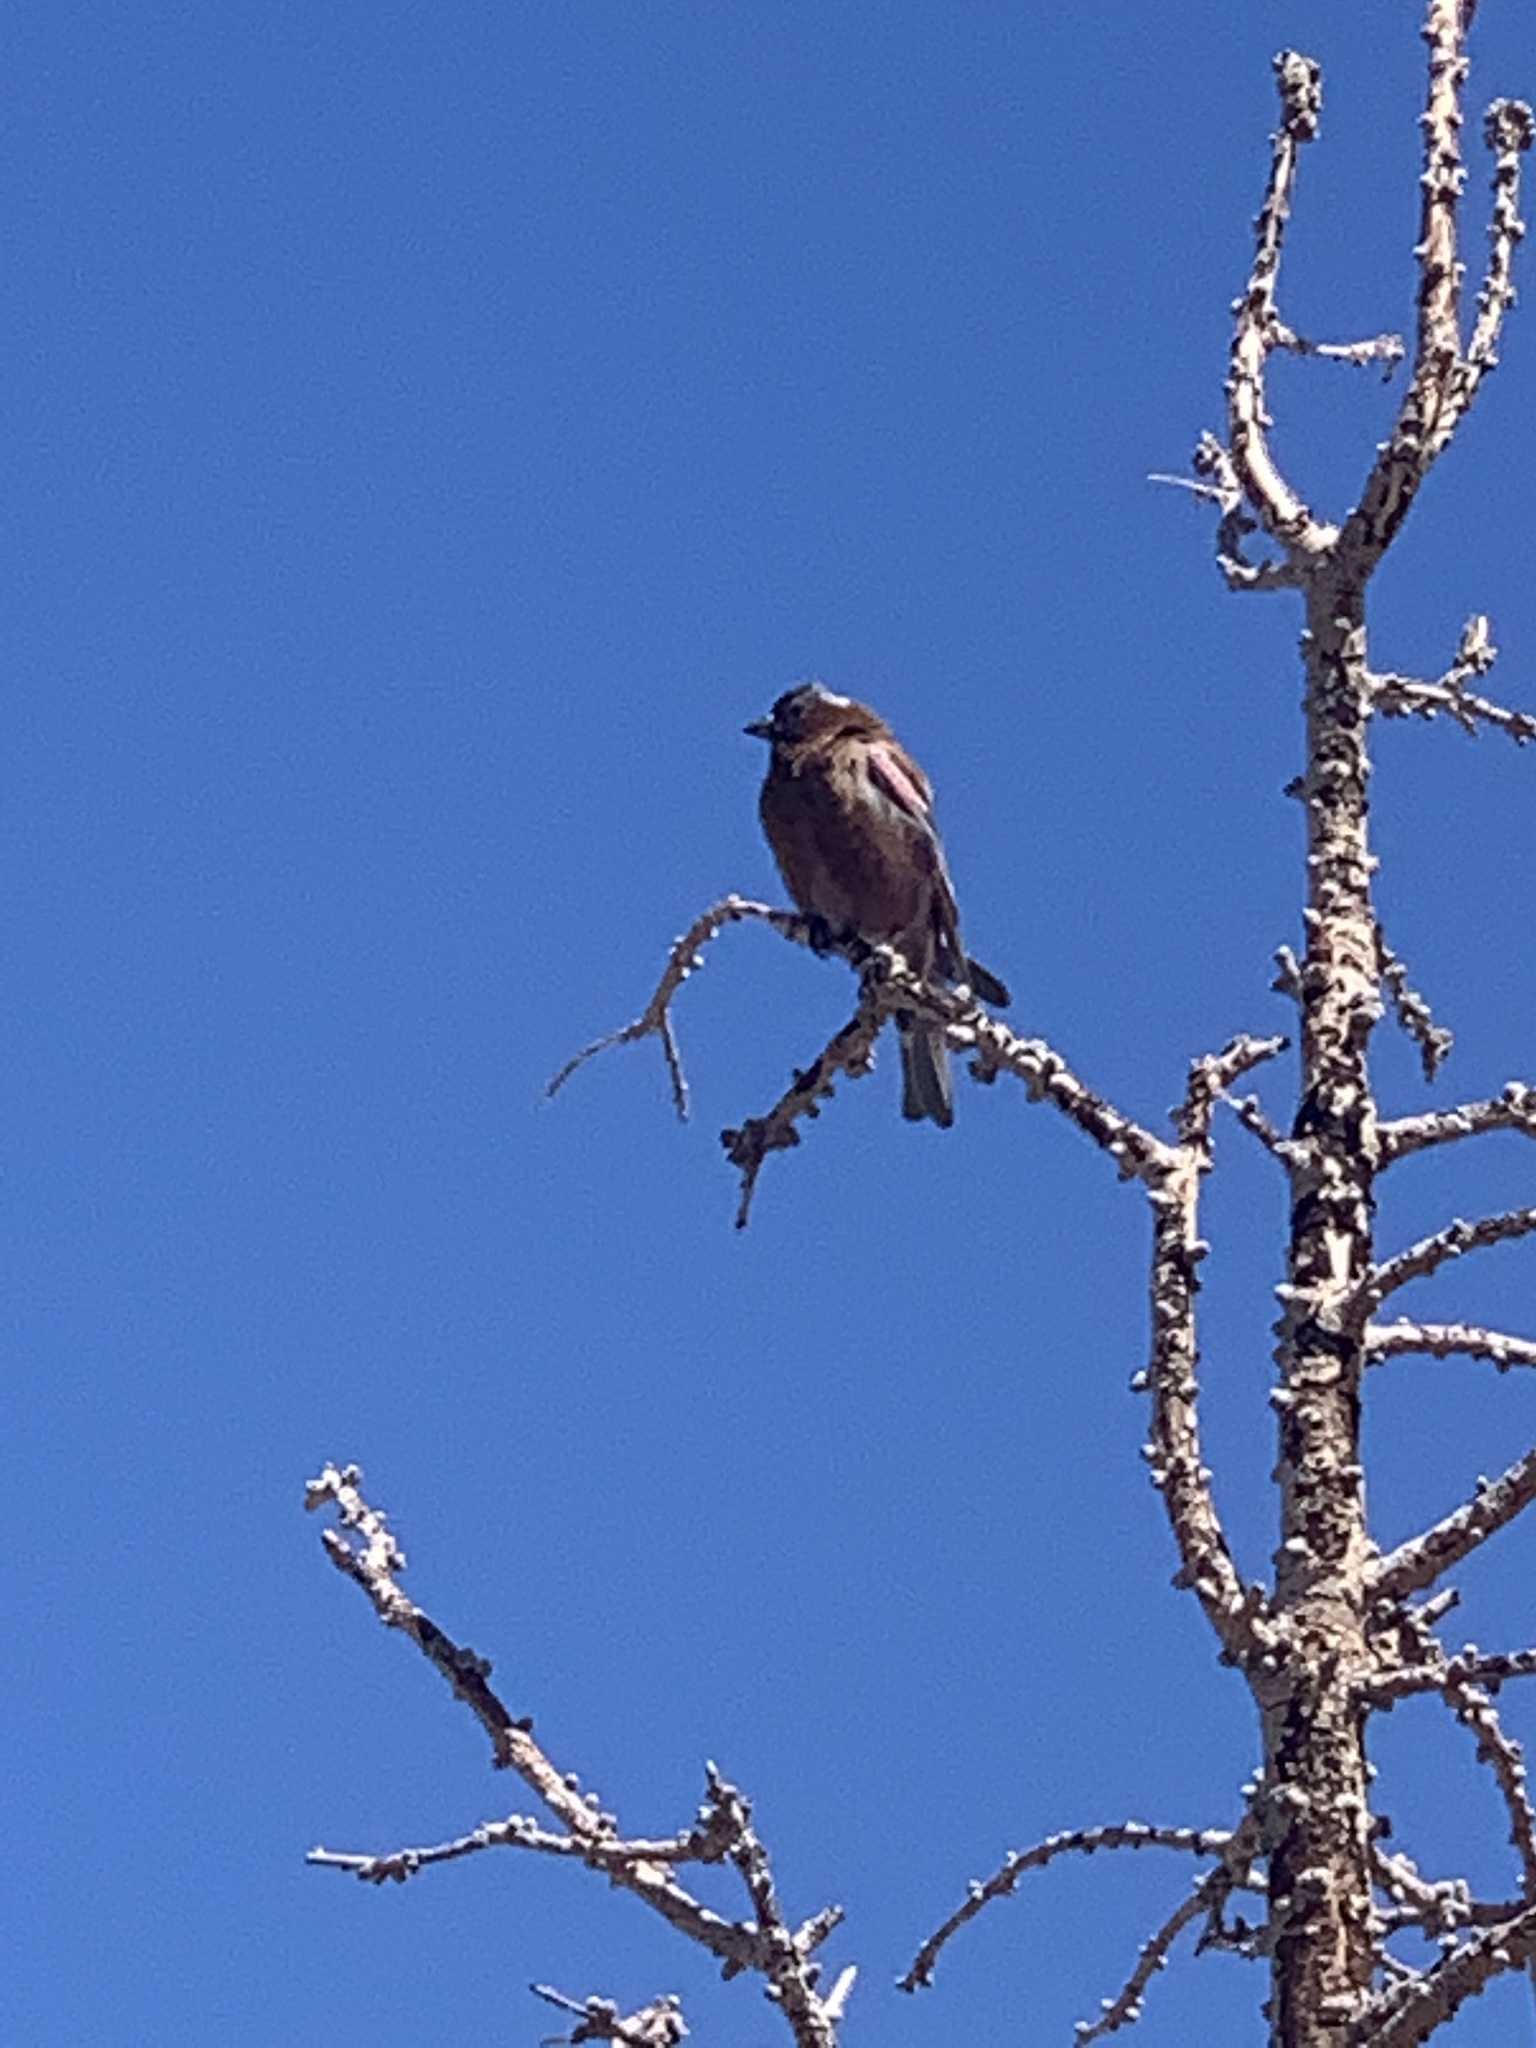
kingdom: Animalia
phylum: Chordata
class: Aves
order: Passeriformes
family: Fringillidae
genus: Leucosticte
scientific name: Leucosticte tephrocotis
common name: Gray-crowned rosy-finch
